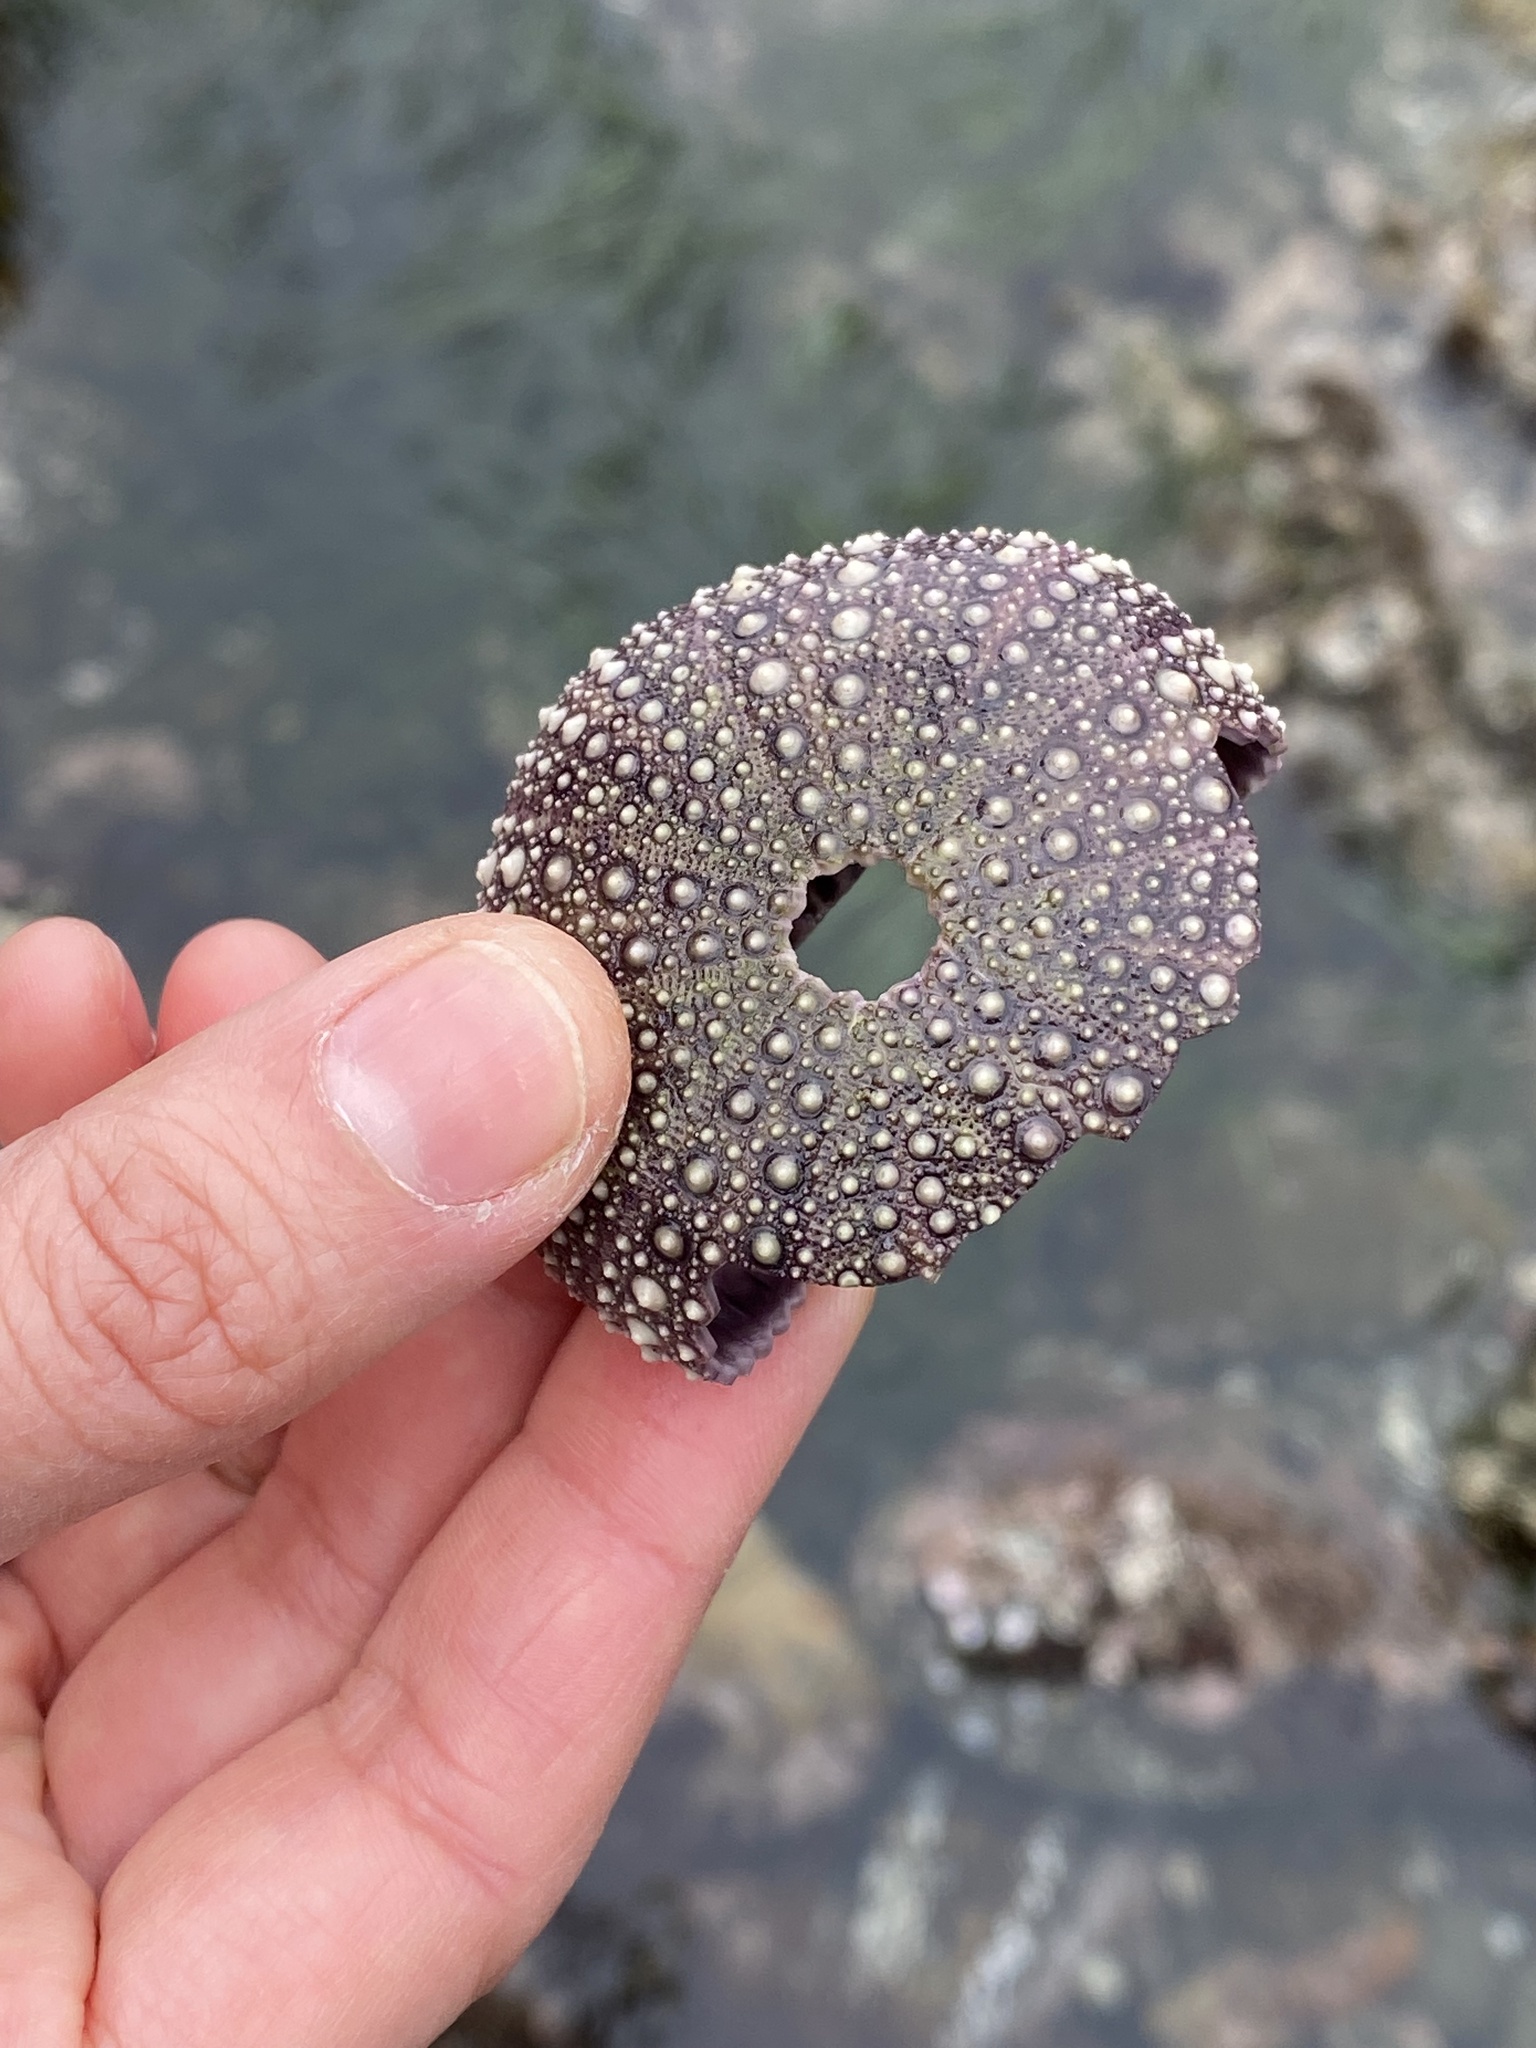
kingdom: Animalia
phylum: Echinodermata
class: Echinoidea
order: Camarodonta
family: Strongylocentrotidae
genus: Strongylocentrotus
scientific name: Strongylocentrotus purpuratus
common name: Purple sea urchin
